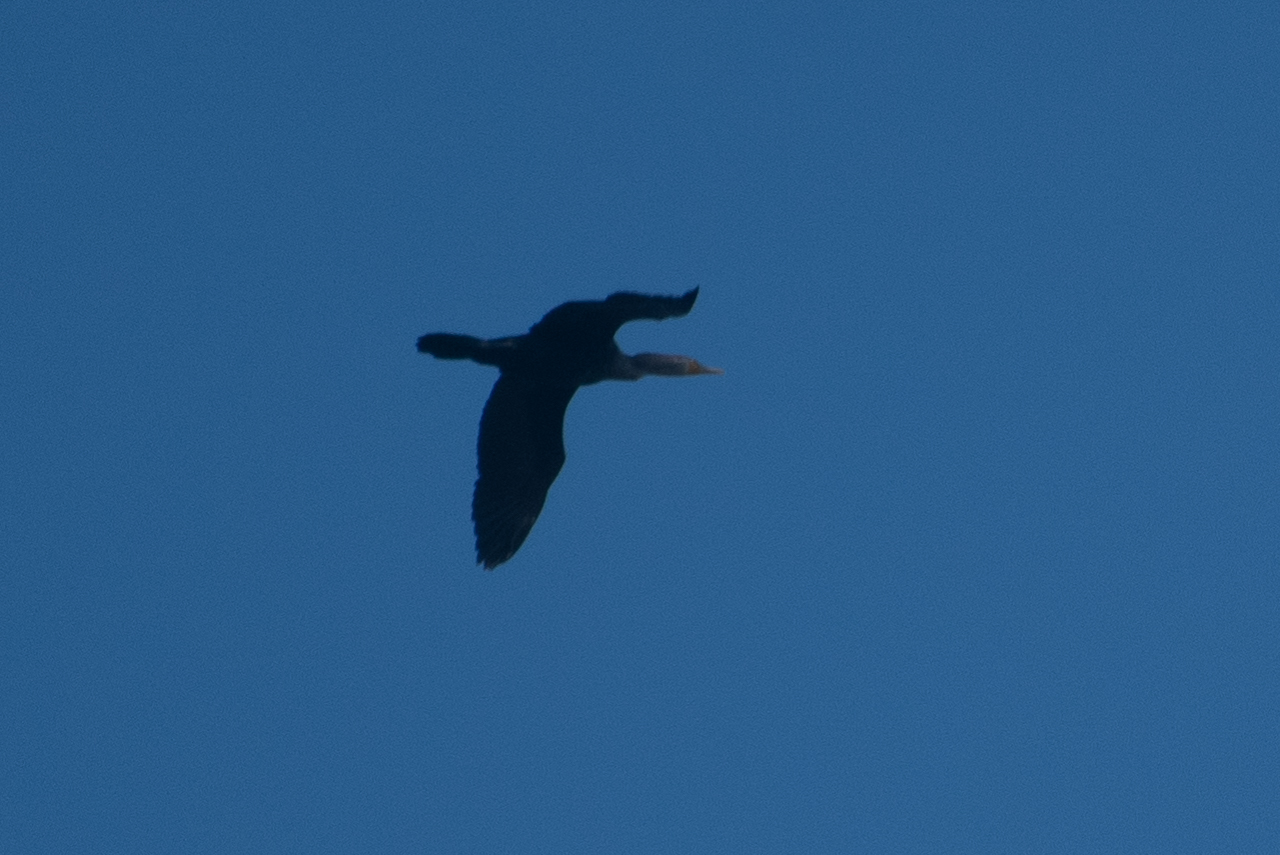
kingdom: Animalia
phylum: Chordata
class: Aves
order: Suliformes
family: Phalacrocoracidae
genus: Phalacrocorax
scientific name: Phalacrocorax auritus
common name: Double-crested cormorant
